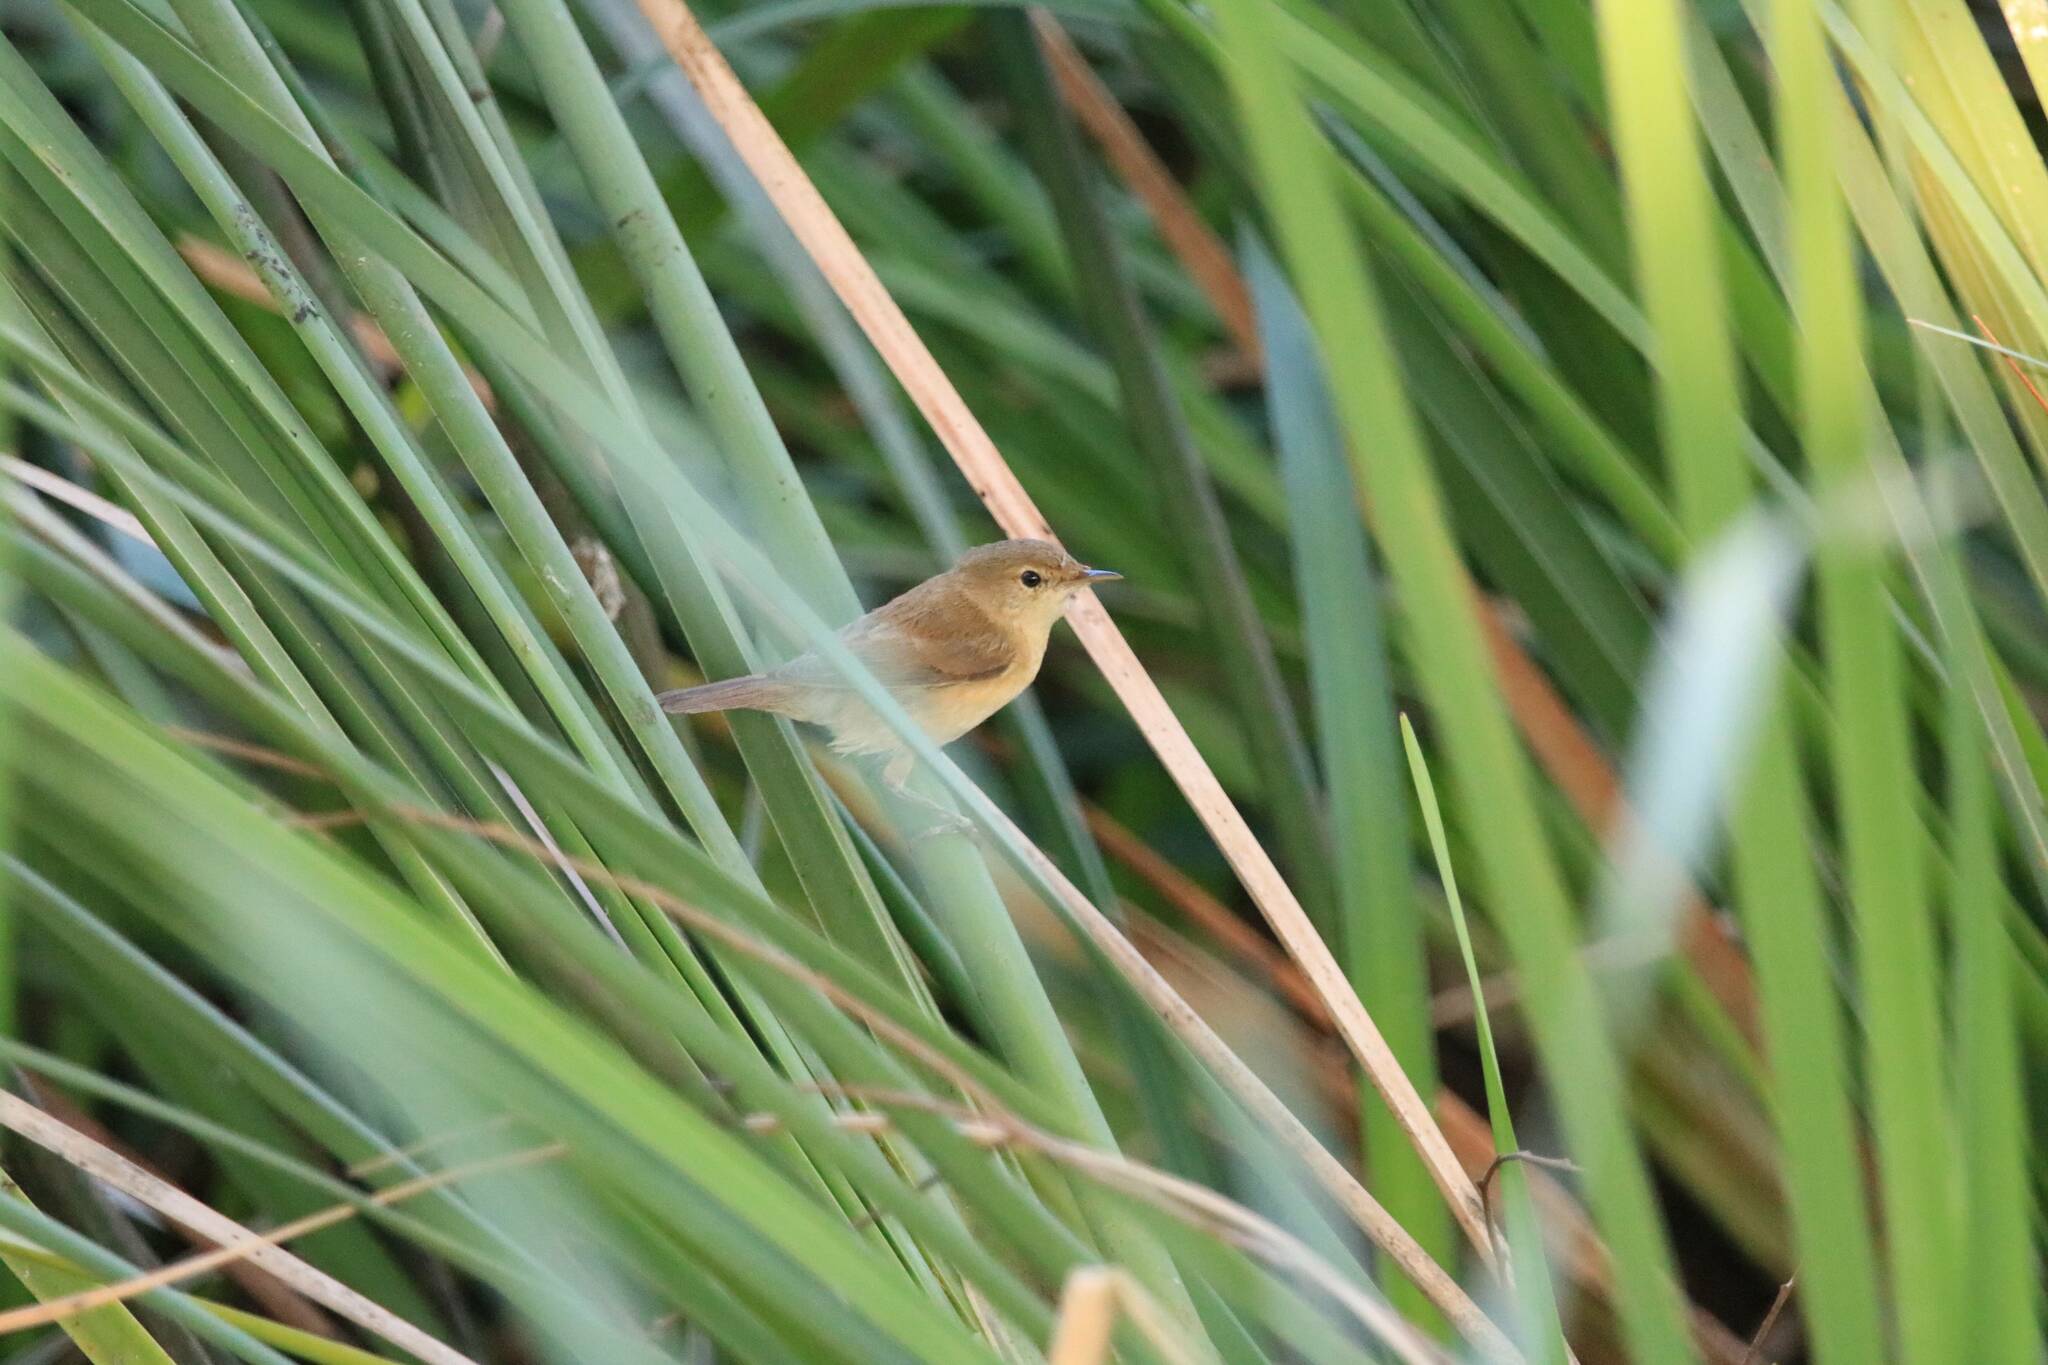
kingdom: Animalia
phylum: Chordata
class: Aves
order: Passeriformes
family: Acrocephalidae
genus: Acrocephalus
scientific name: Acrocephalus scirpaceus
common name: Eurasian reed warbler
